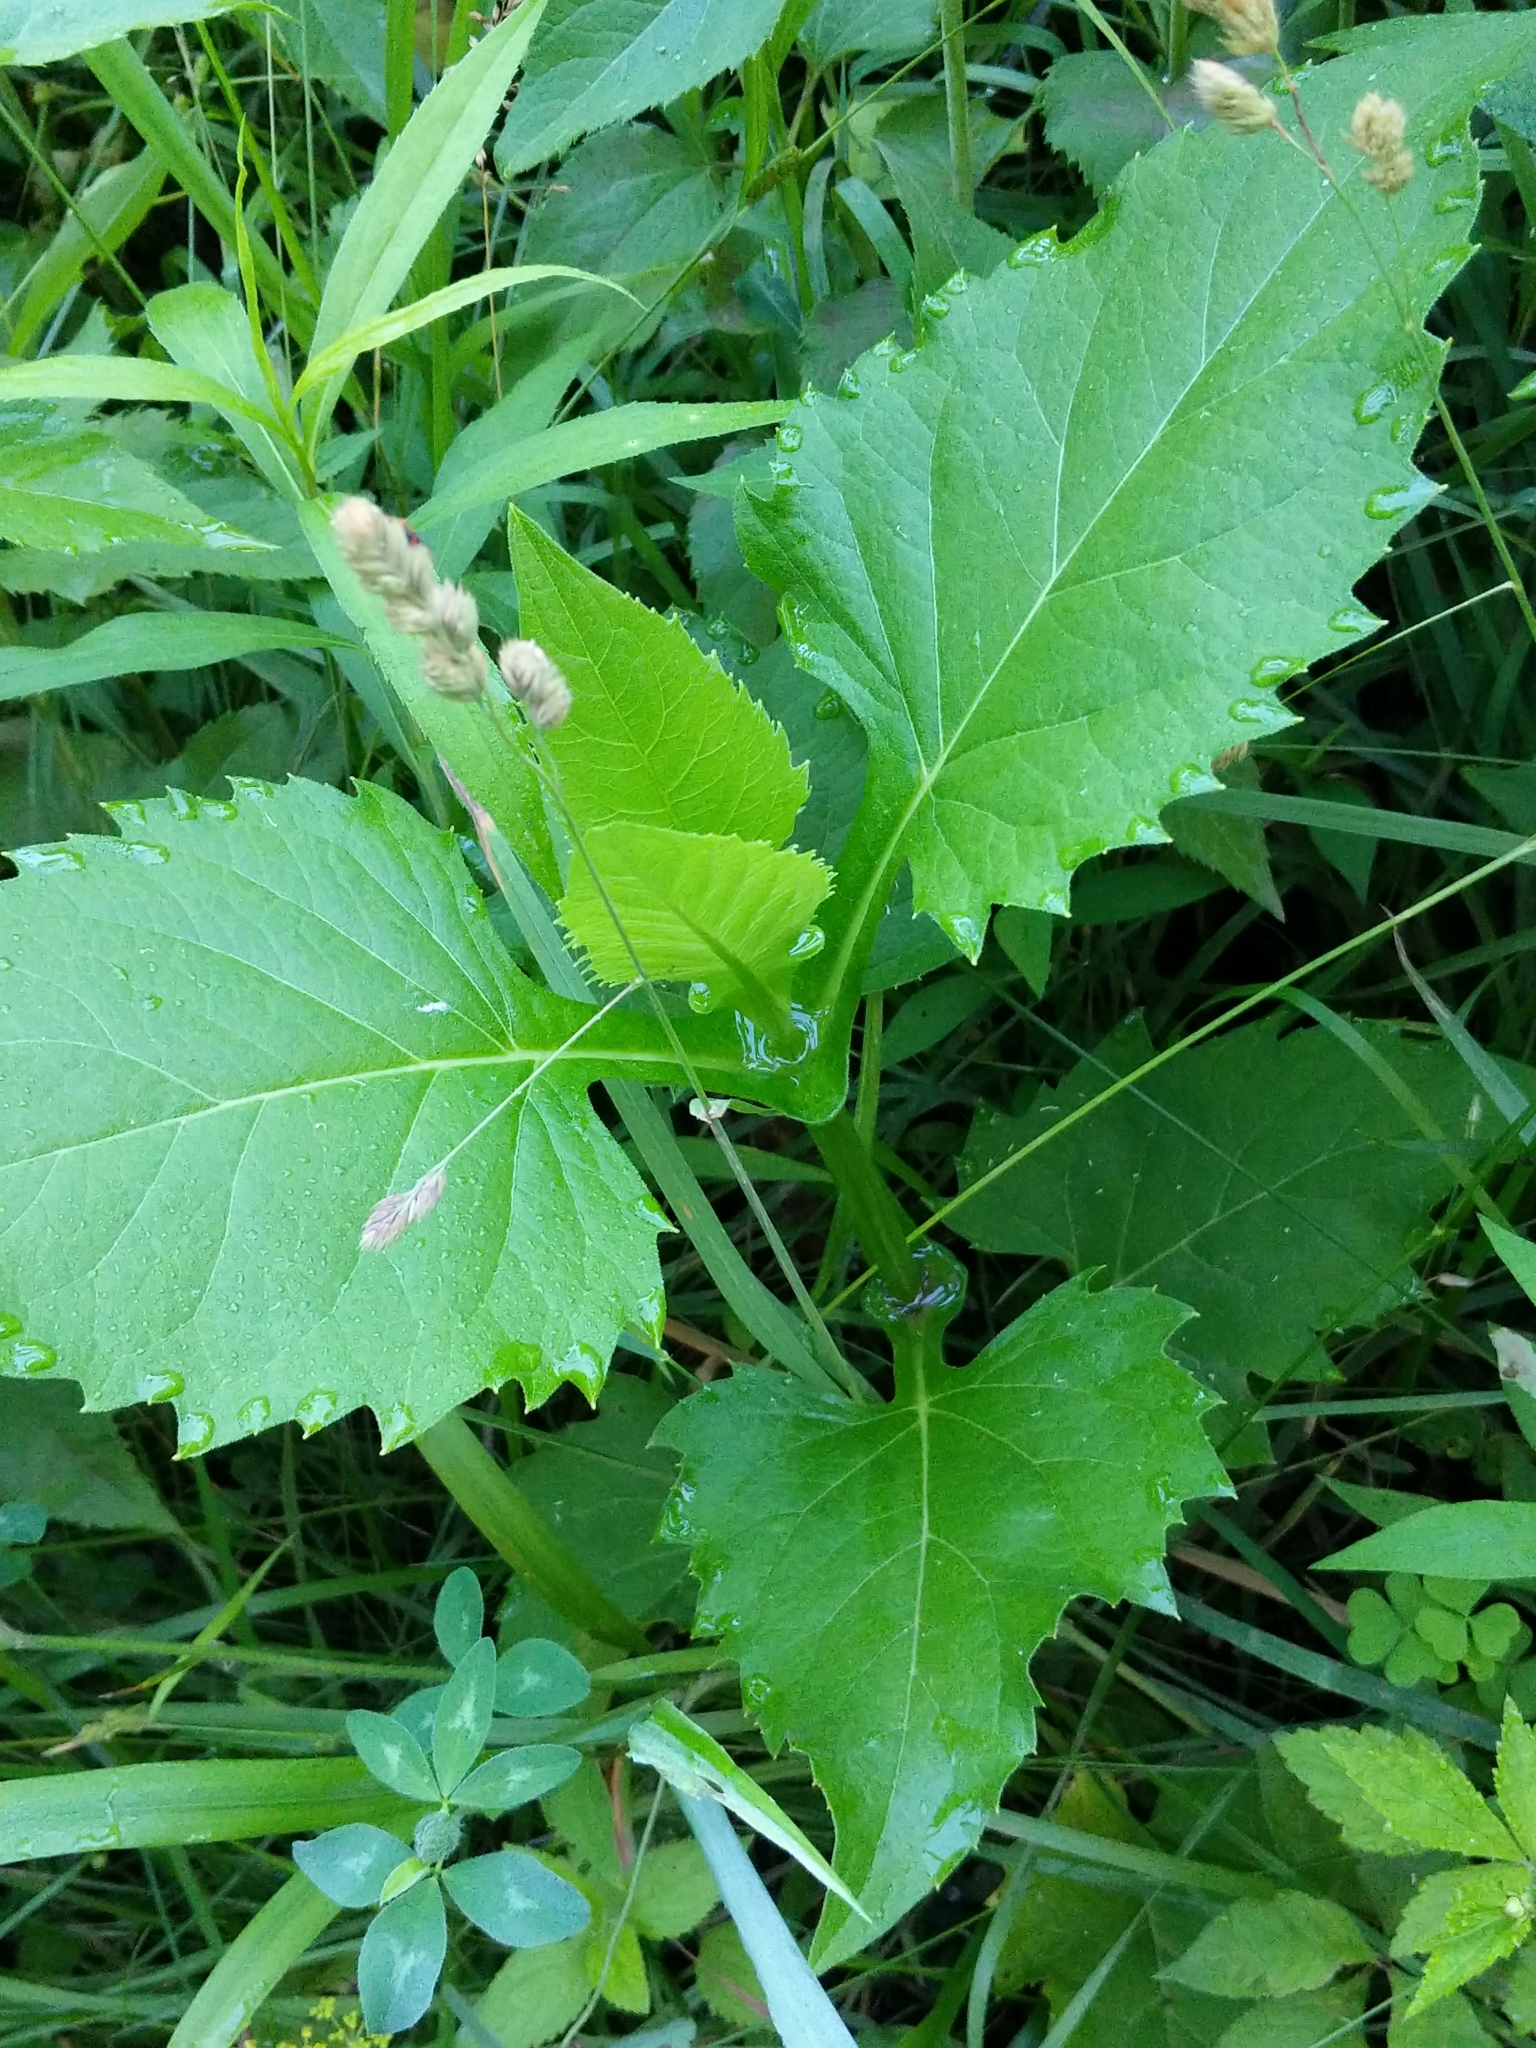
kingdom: Plantae
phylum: Tracheophyta
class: Magnoliopsida
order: Asterales
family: Asteraceae
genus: Silphium
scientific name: Silphium perfoliatum
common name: Cup-plant
